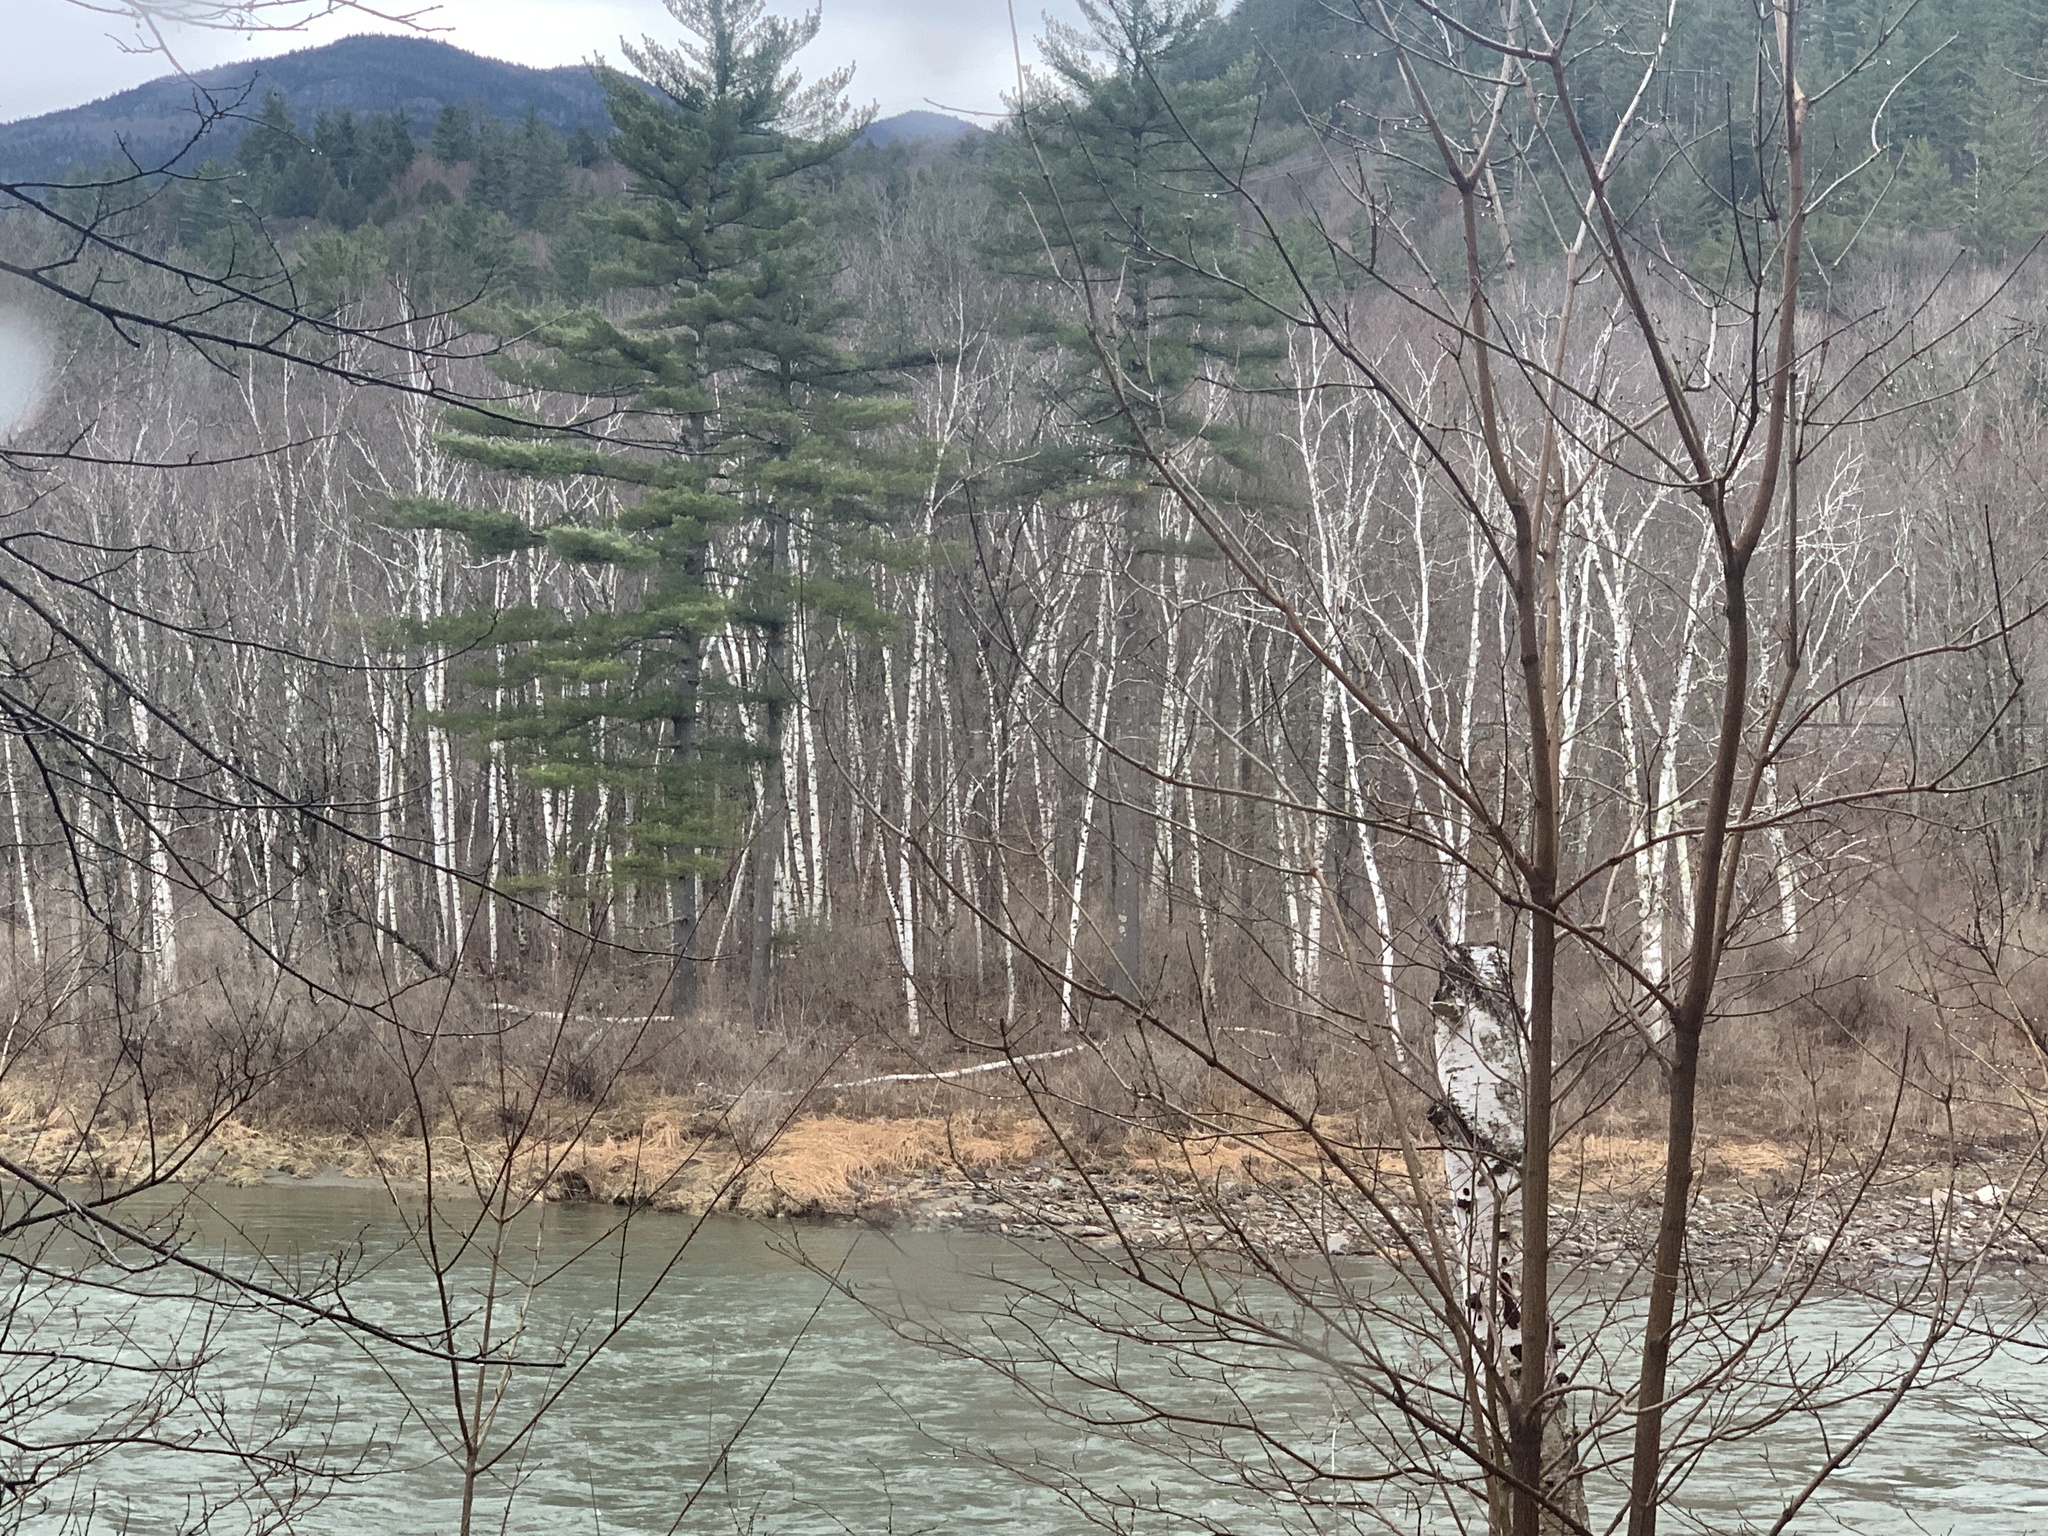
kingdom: Plantae
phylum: Tracheophyta
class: Pinopsida
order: Pinales
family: Pinaceae
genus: Pinus
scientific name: Pinus strobus
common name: Weymouth pine
